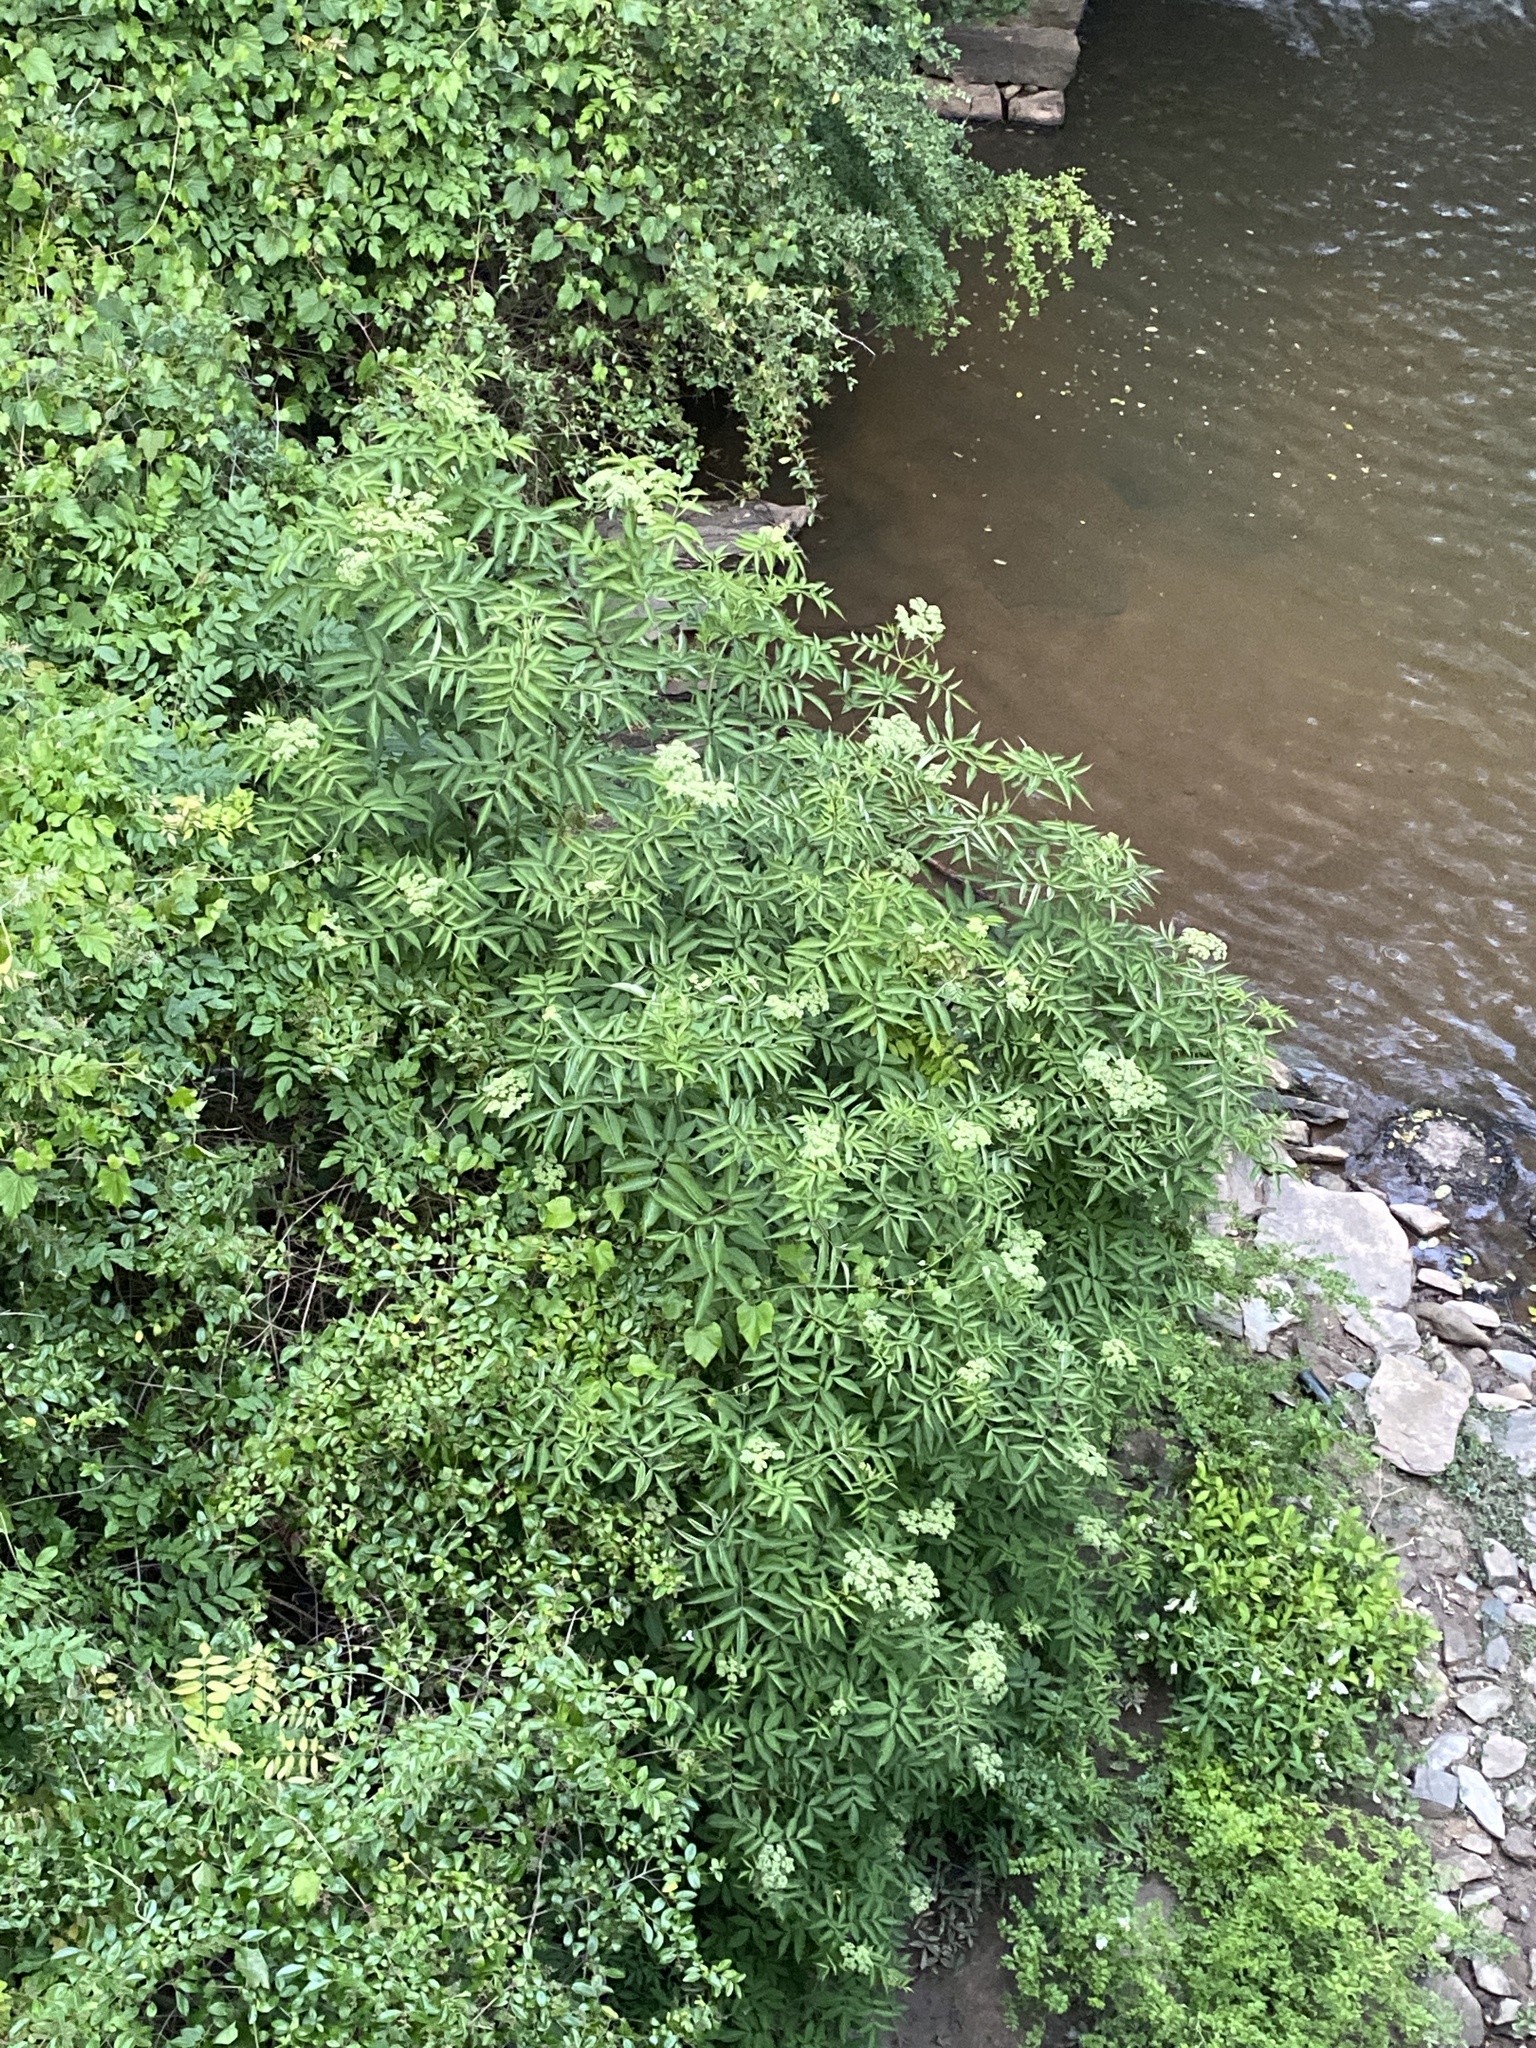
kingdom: Plantae
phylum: Tracheophyta
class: Magnoliopsida
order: Dipsacales
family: Viburnaceae
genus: Sambucus
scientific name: Sambucus canadensis
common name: American elder
